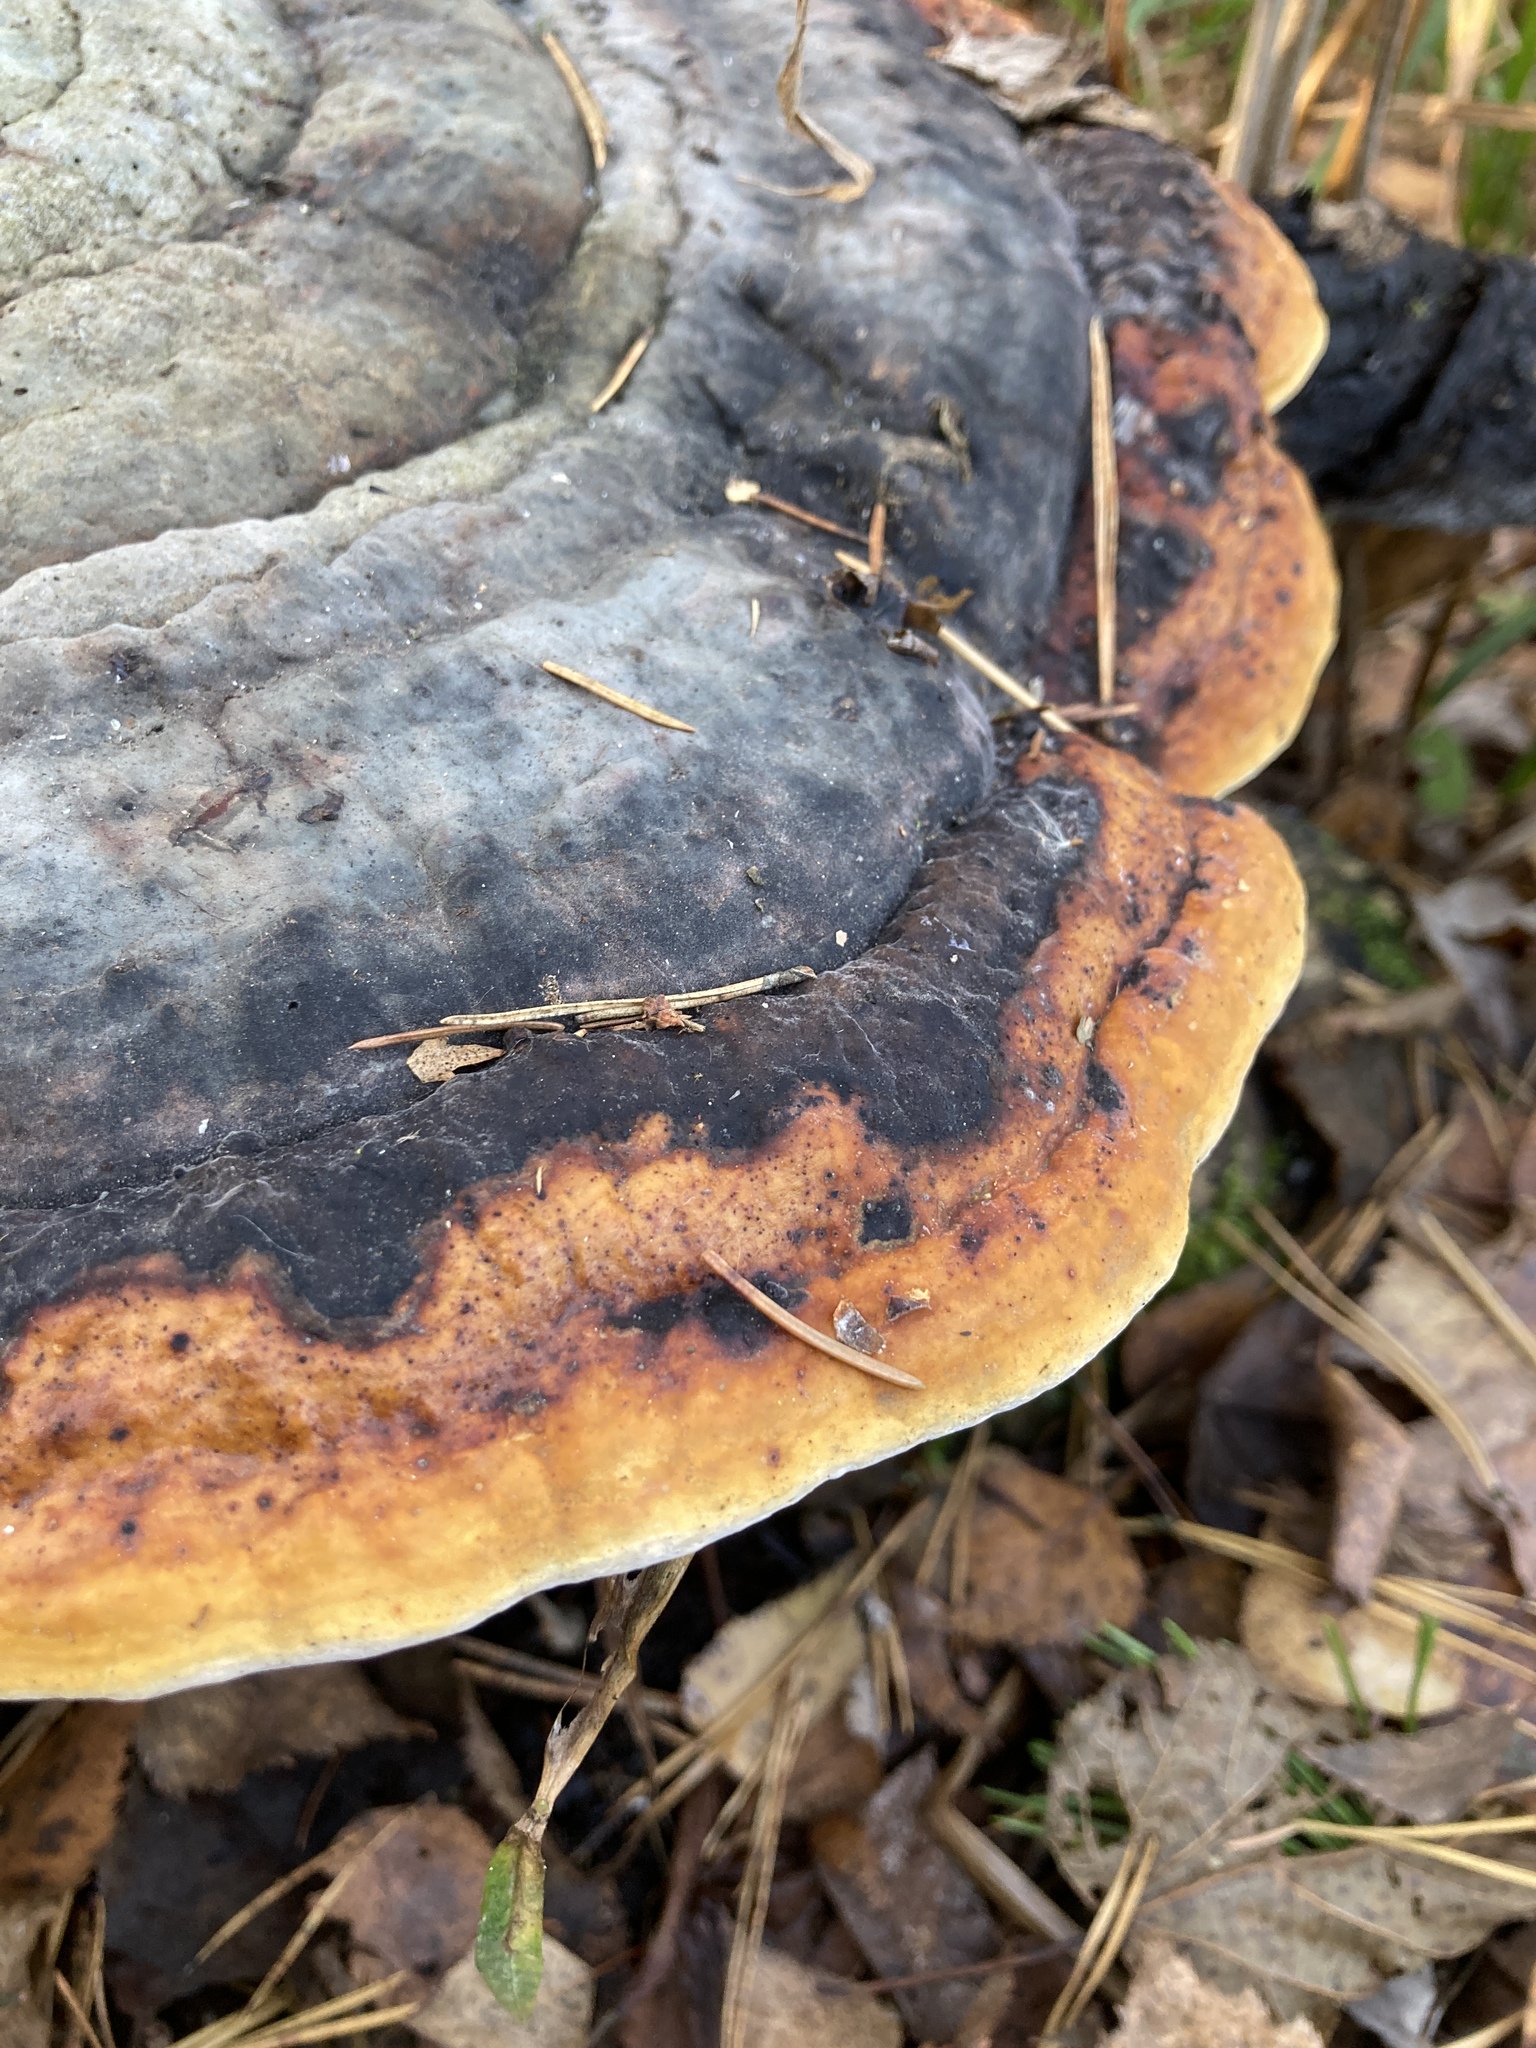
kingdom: Fungi
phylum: Basidiomycota
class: Agaricomycetes
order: Polyporales
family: Fomitopsidaceae
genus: Fomitopsis
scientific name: Fomitopsis pinicola
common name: Red-belted bracket
